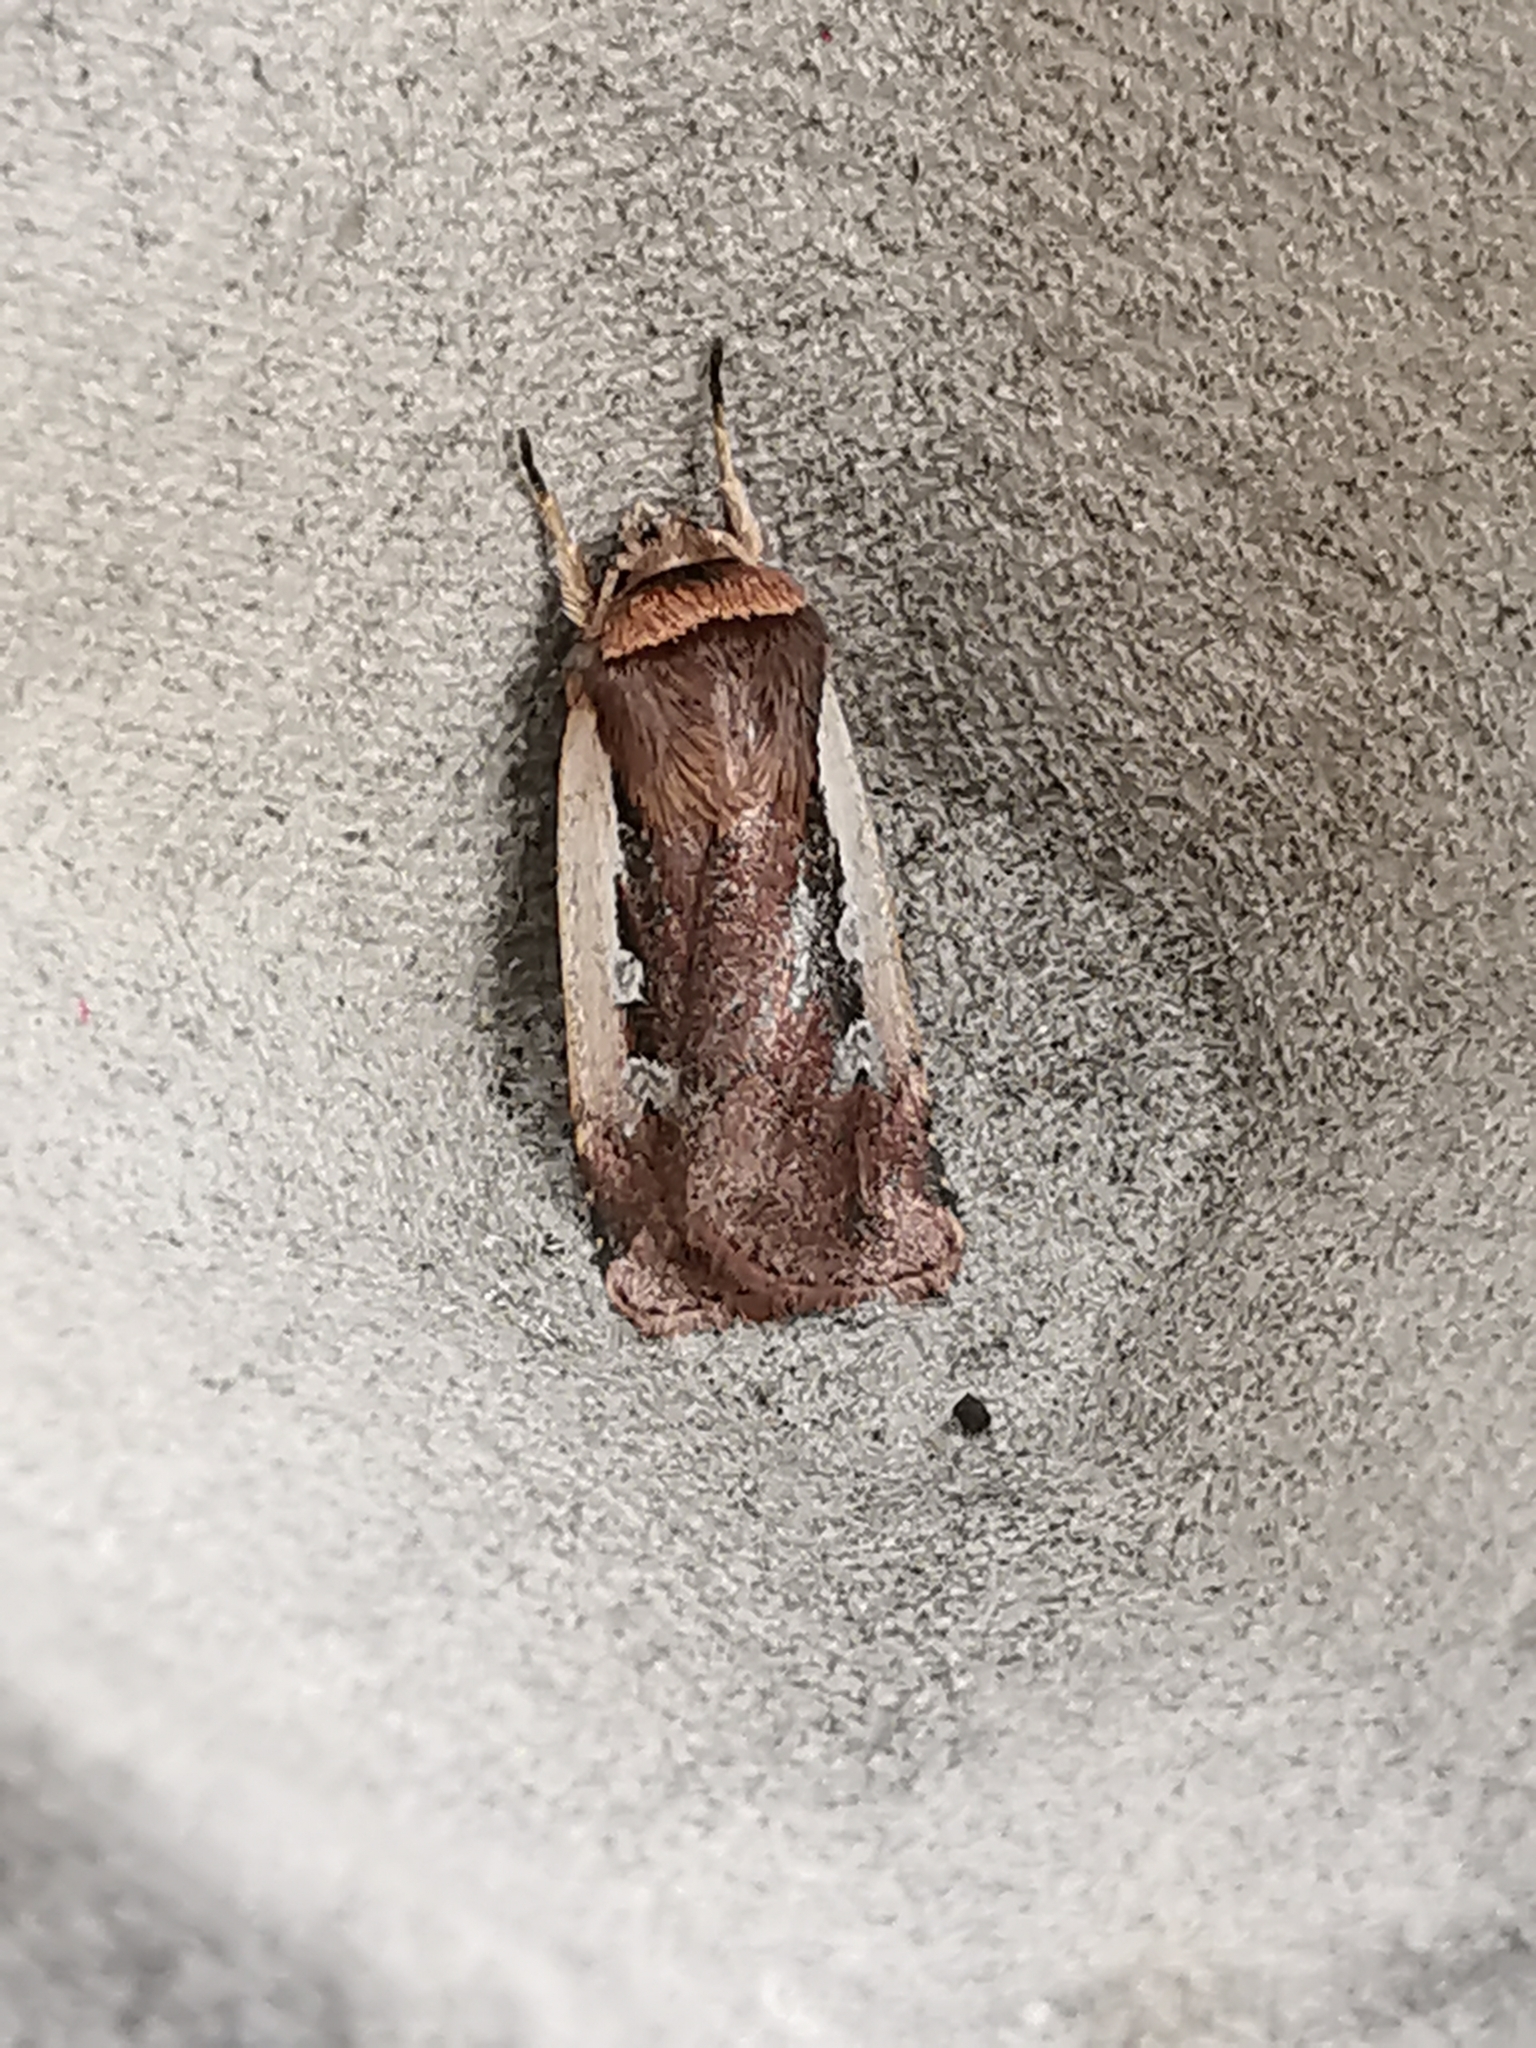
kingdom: Animalia
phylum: Arthropoda
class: Insecta
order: Lepidoptera
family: Noctuidae
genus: Ochropleura
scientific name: Ochropleura plecta
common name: Flame shoulder
